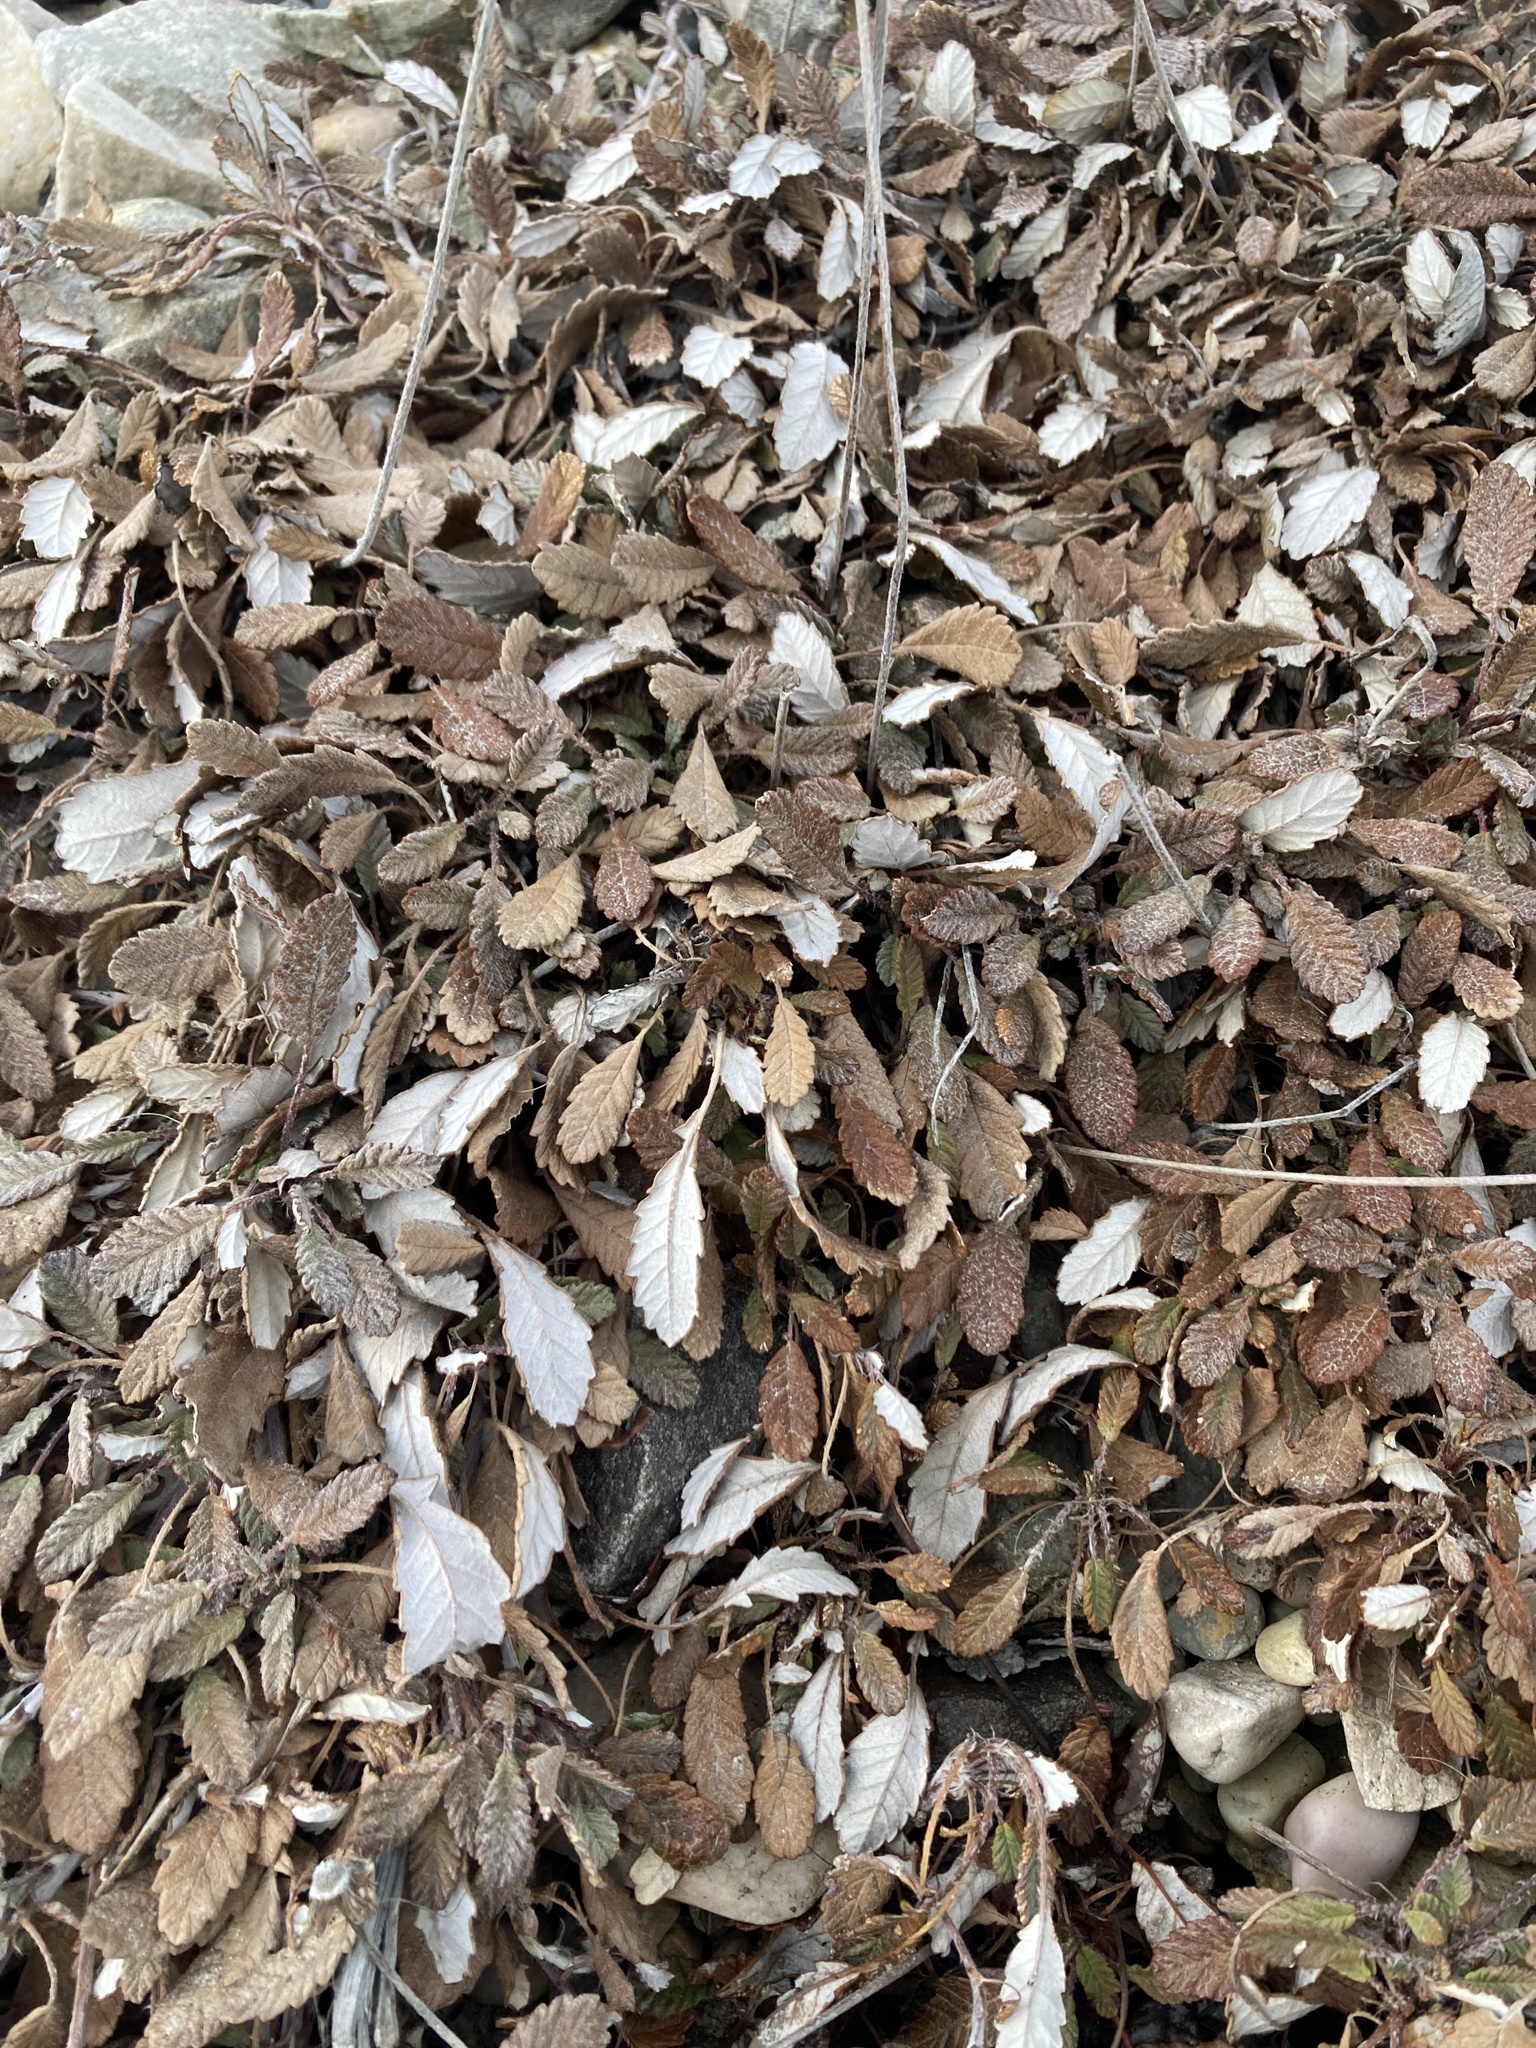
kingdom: Plantae
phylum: Tracheophyta
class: Magnoliopsida
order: Rosales
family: Rosaceae
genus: Dryas
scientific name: Dryas drummondii
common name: Drummond's dryad
